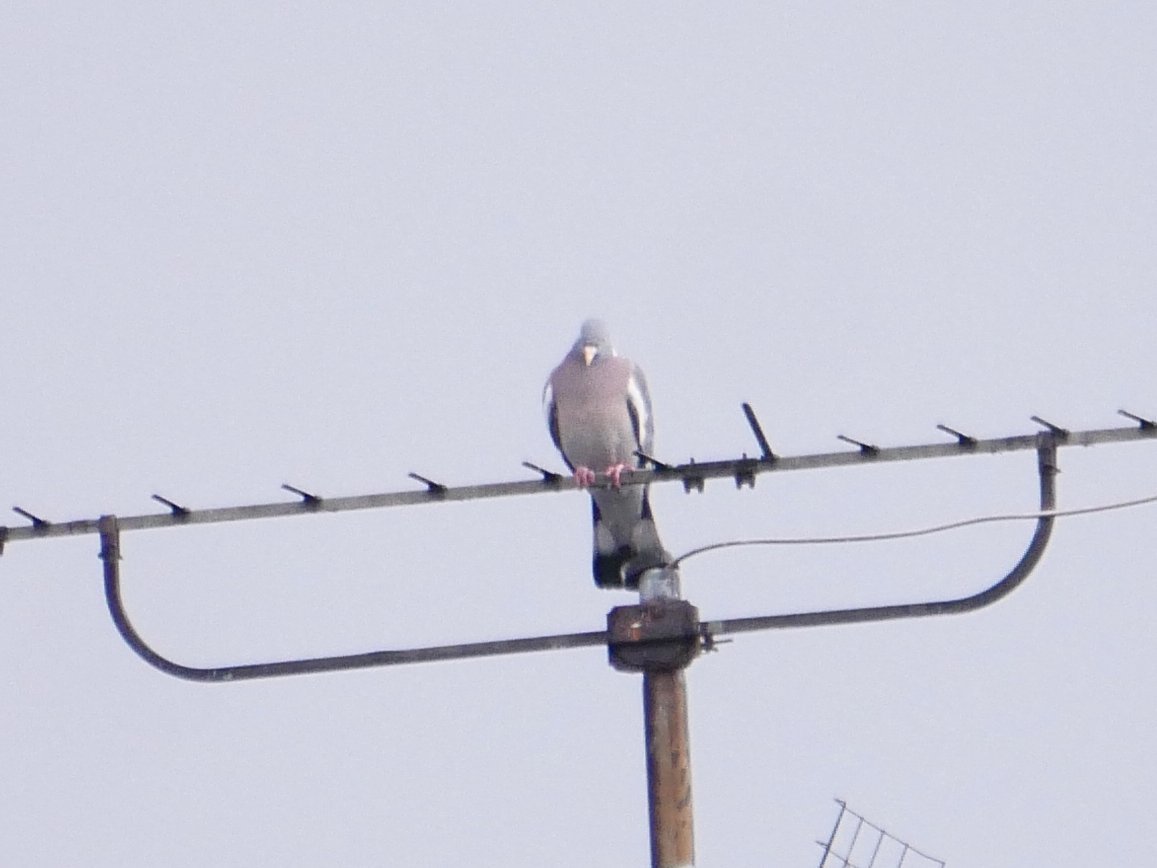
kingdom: Animalia
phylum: Chordata
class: Aves
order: Columbiformes
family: Columbidae
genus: Columba
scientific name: Columba palumbus
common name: Common wood pigeon
